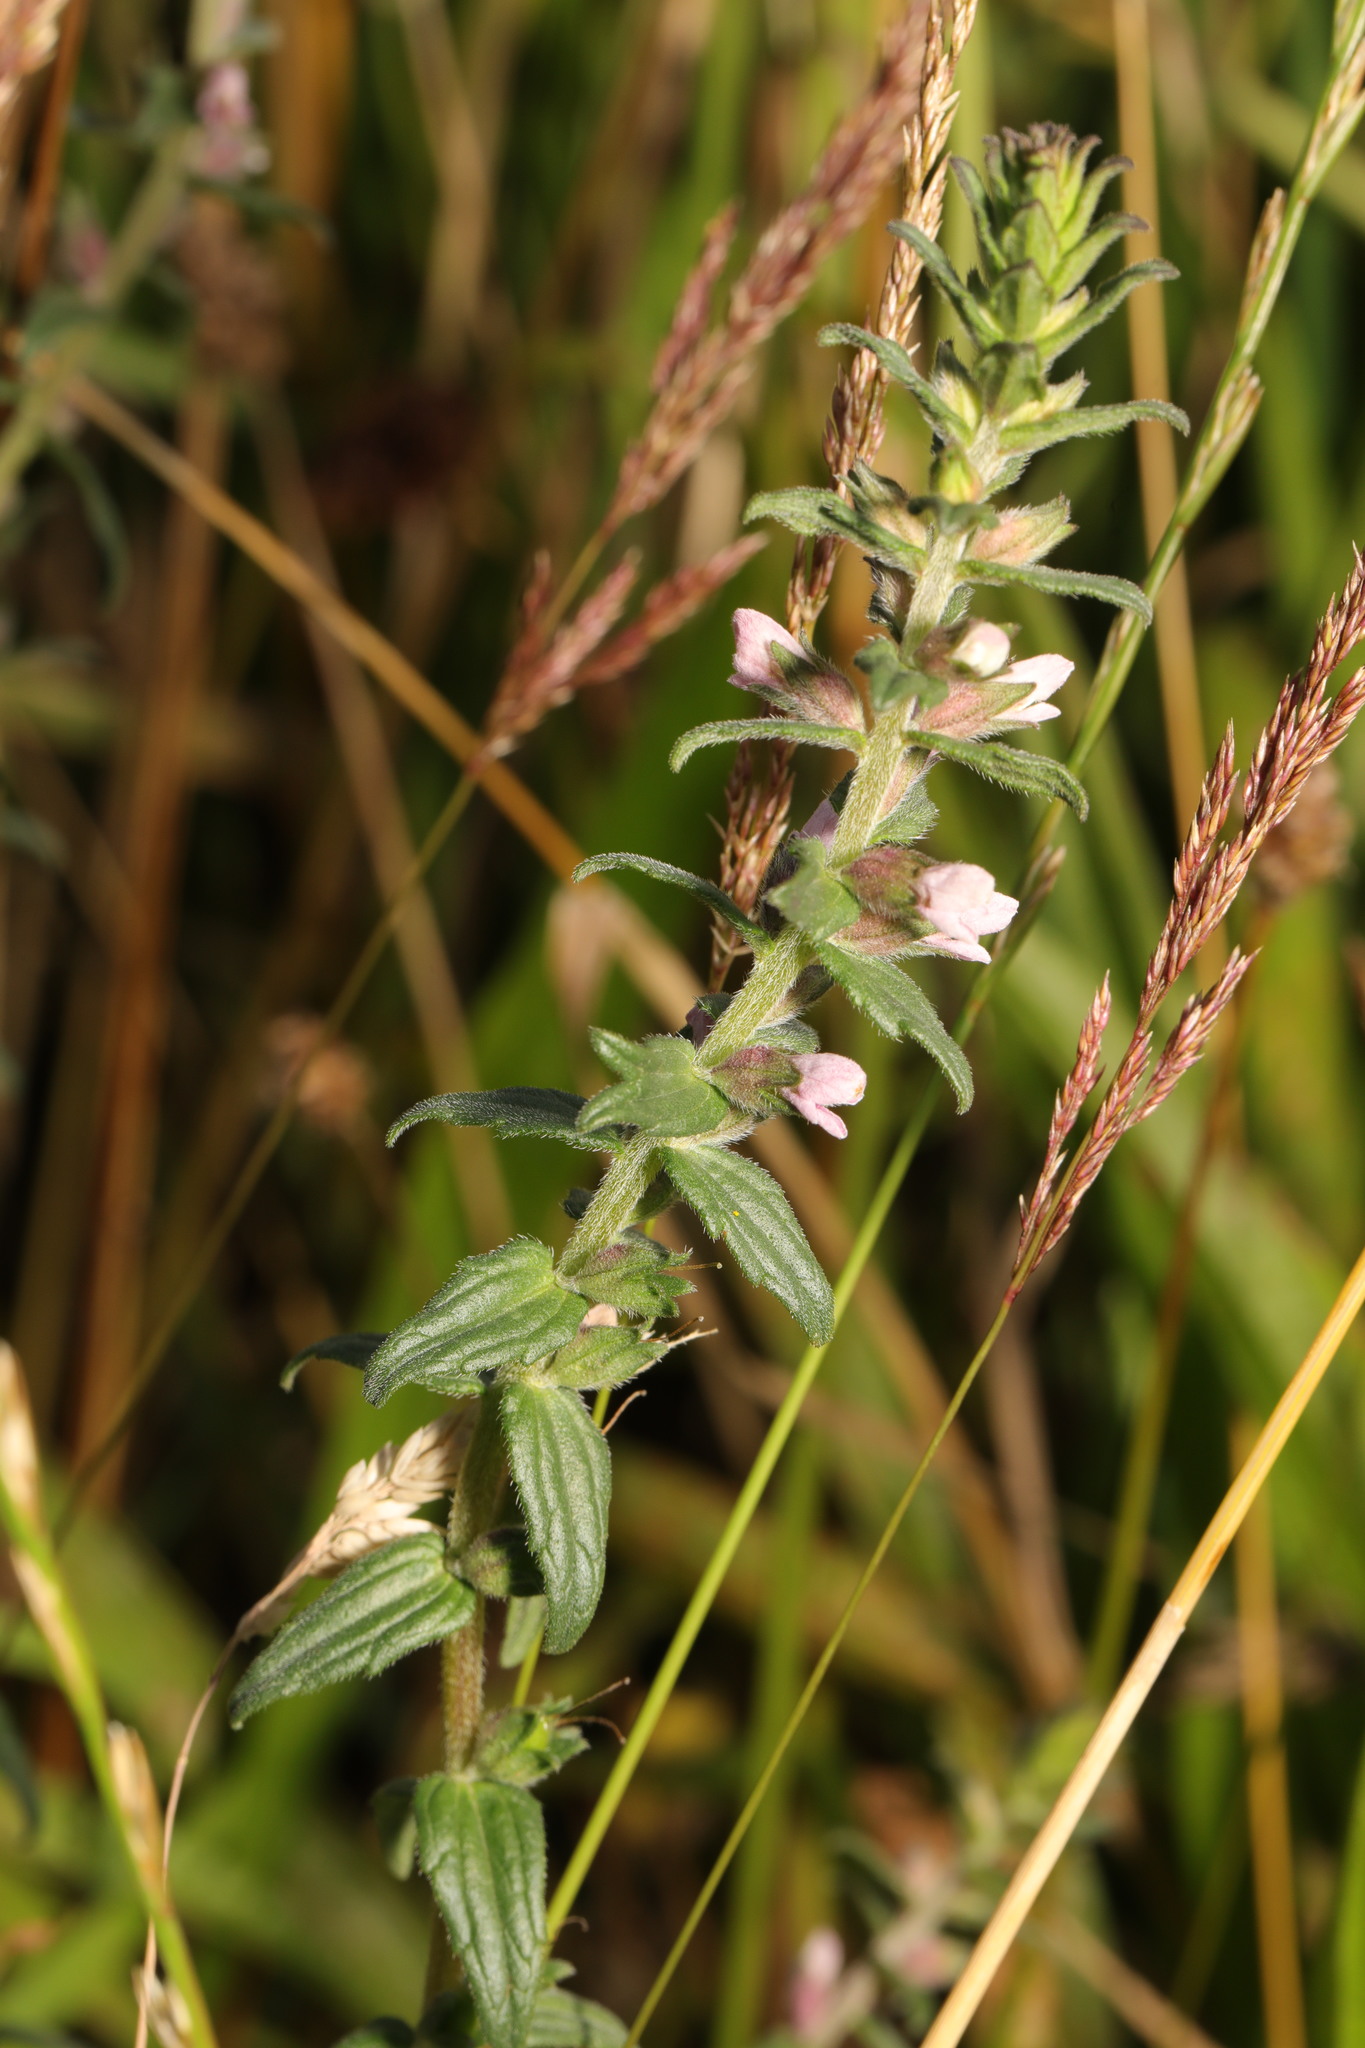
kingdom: Plantae
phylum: Tracheophyta
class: Magnoliopsida
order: Lamiales
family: Orobanchaceae
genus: Odontites
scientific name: Odontites vernus
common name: Red bartsia
